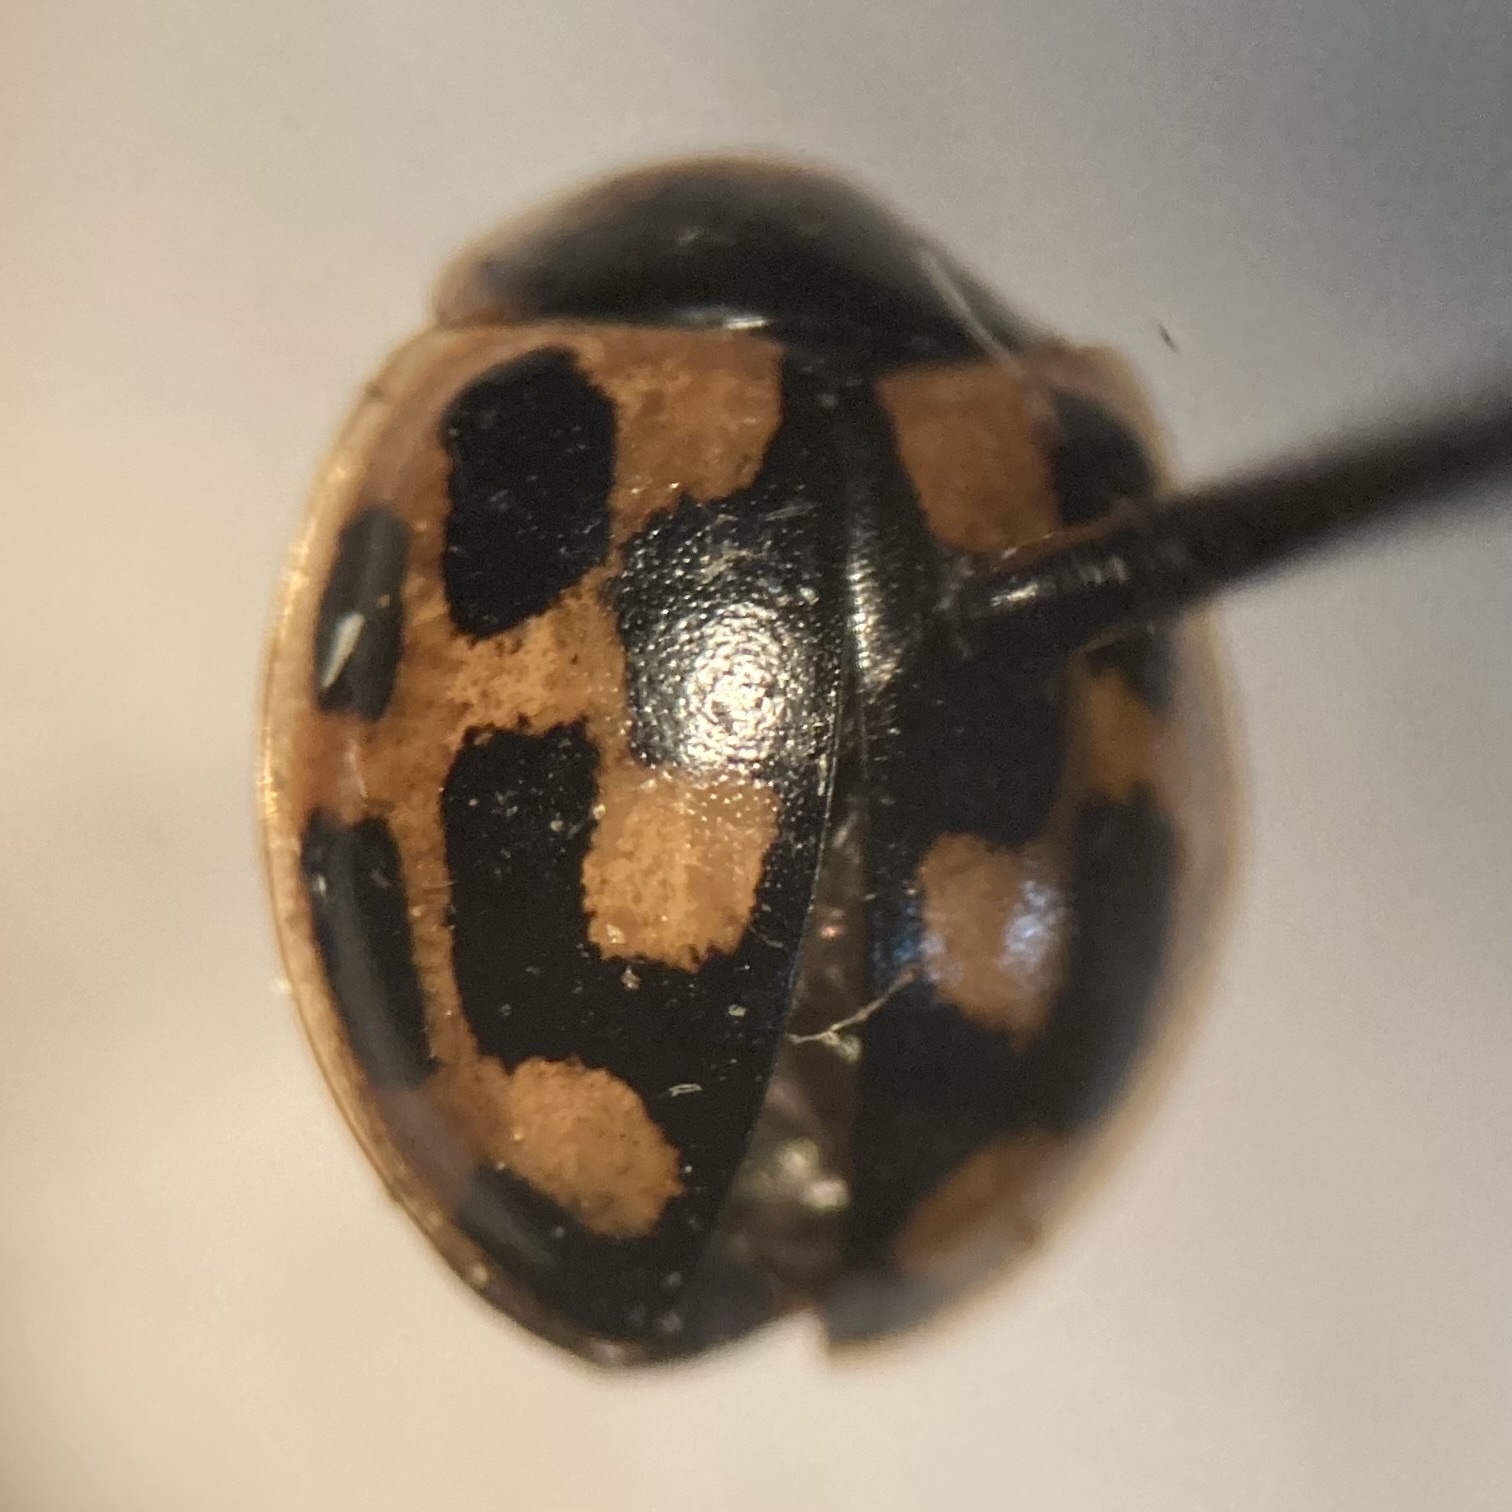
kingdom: Animalia
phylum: Arthropoda
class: Insecta
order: Coleoptera
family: Coccinellidae
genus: Propylaea
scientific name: Propylaea quatuordecimpunctata
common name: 14-spotted ladybird beetle
